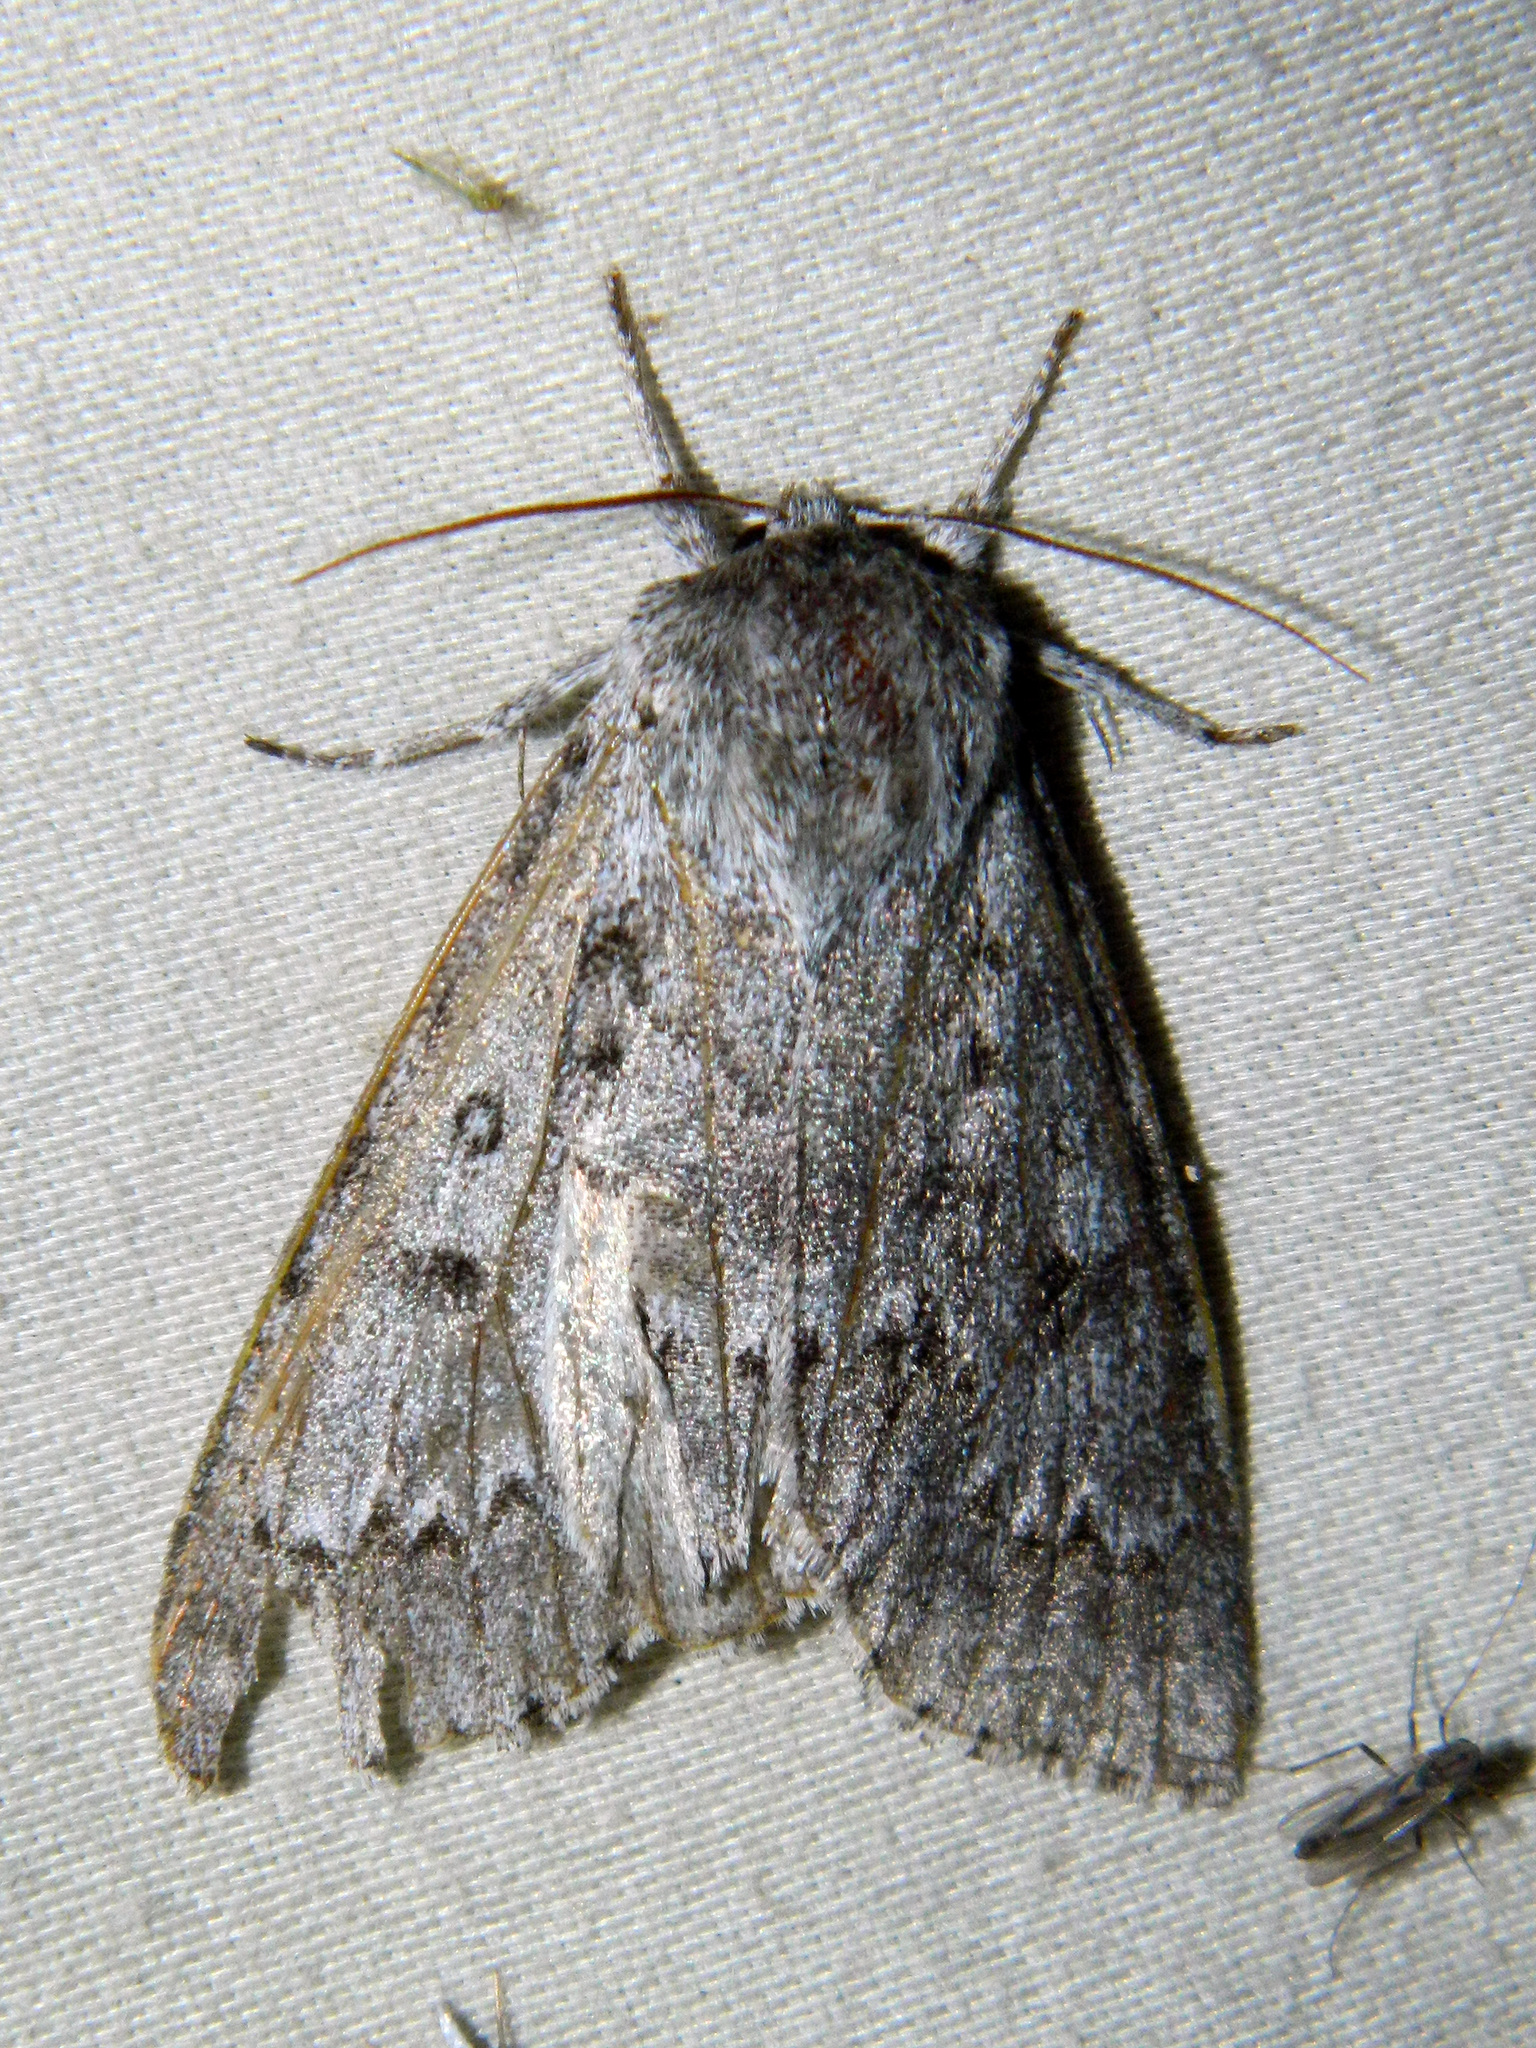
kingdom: Animalia
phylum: Arthropoda
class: Insecta
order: Lepidoptera
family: Noctuidae
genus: Acronicta
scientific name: Acronicta insita
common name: Large gray dagger
